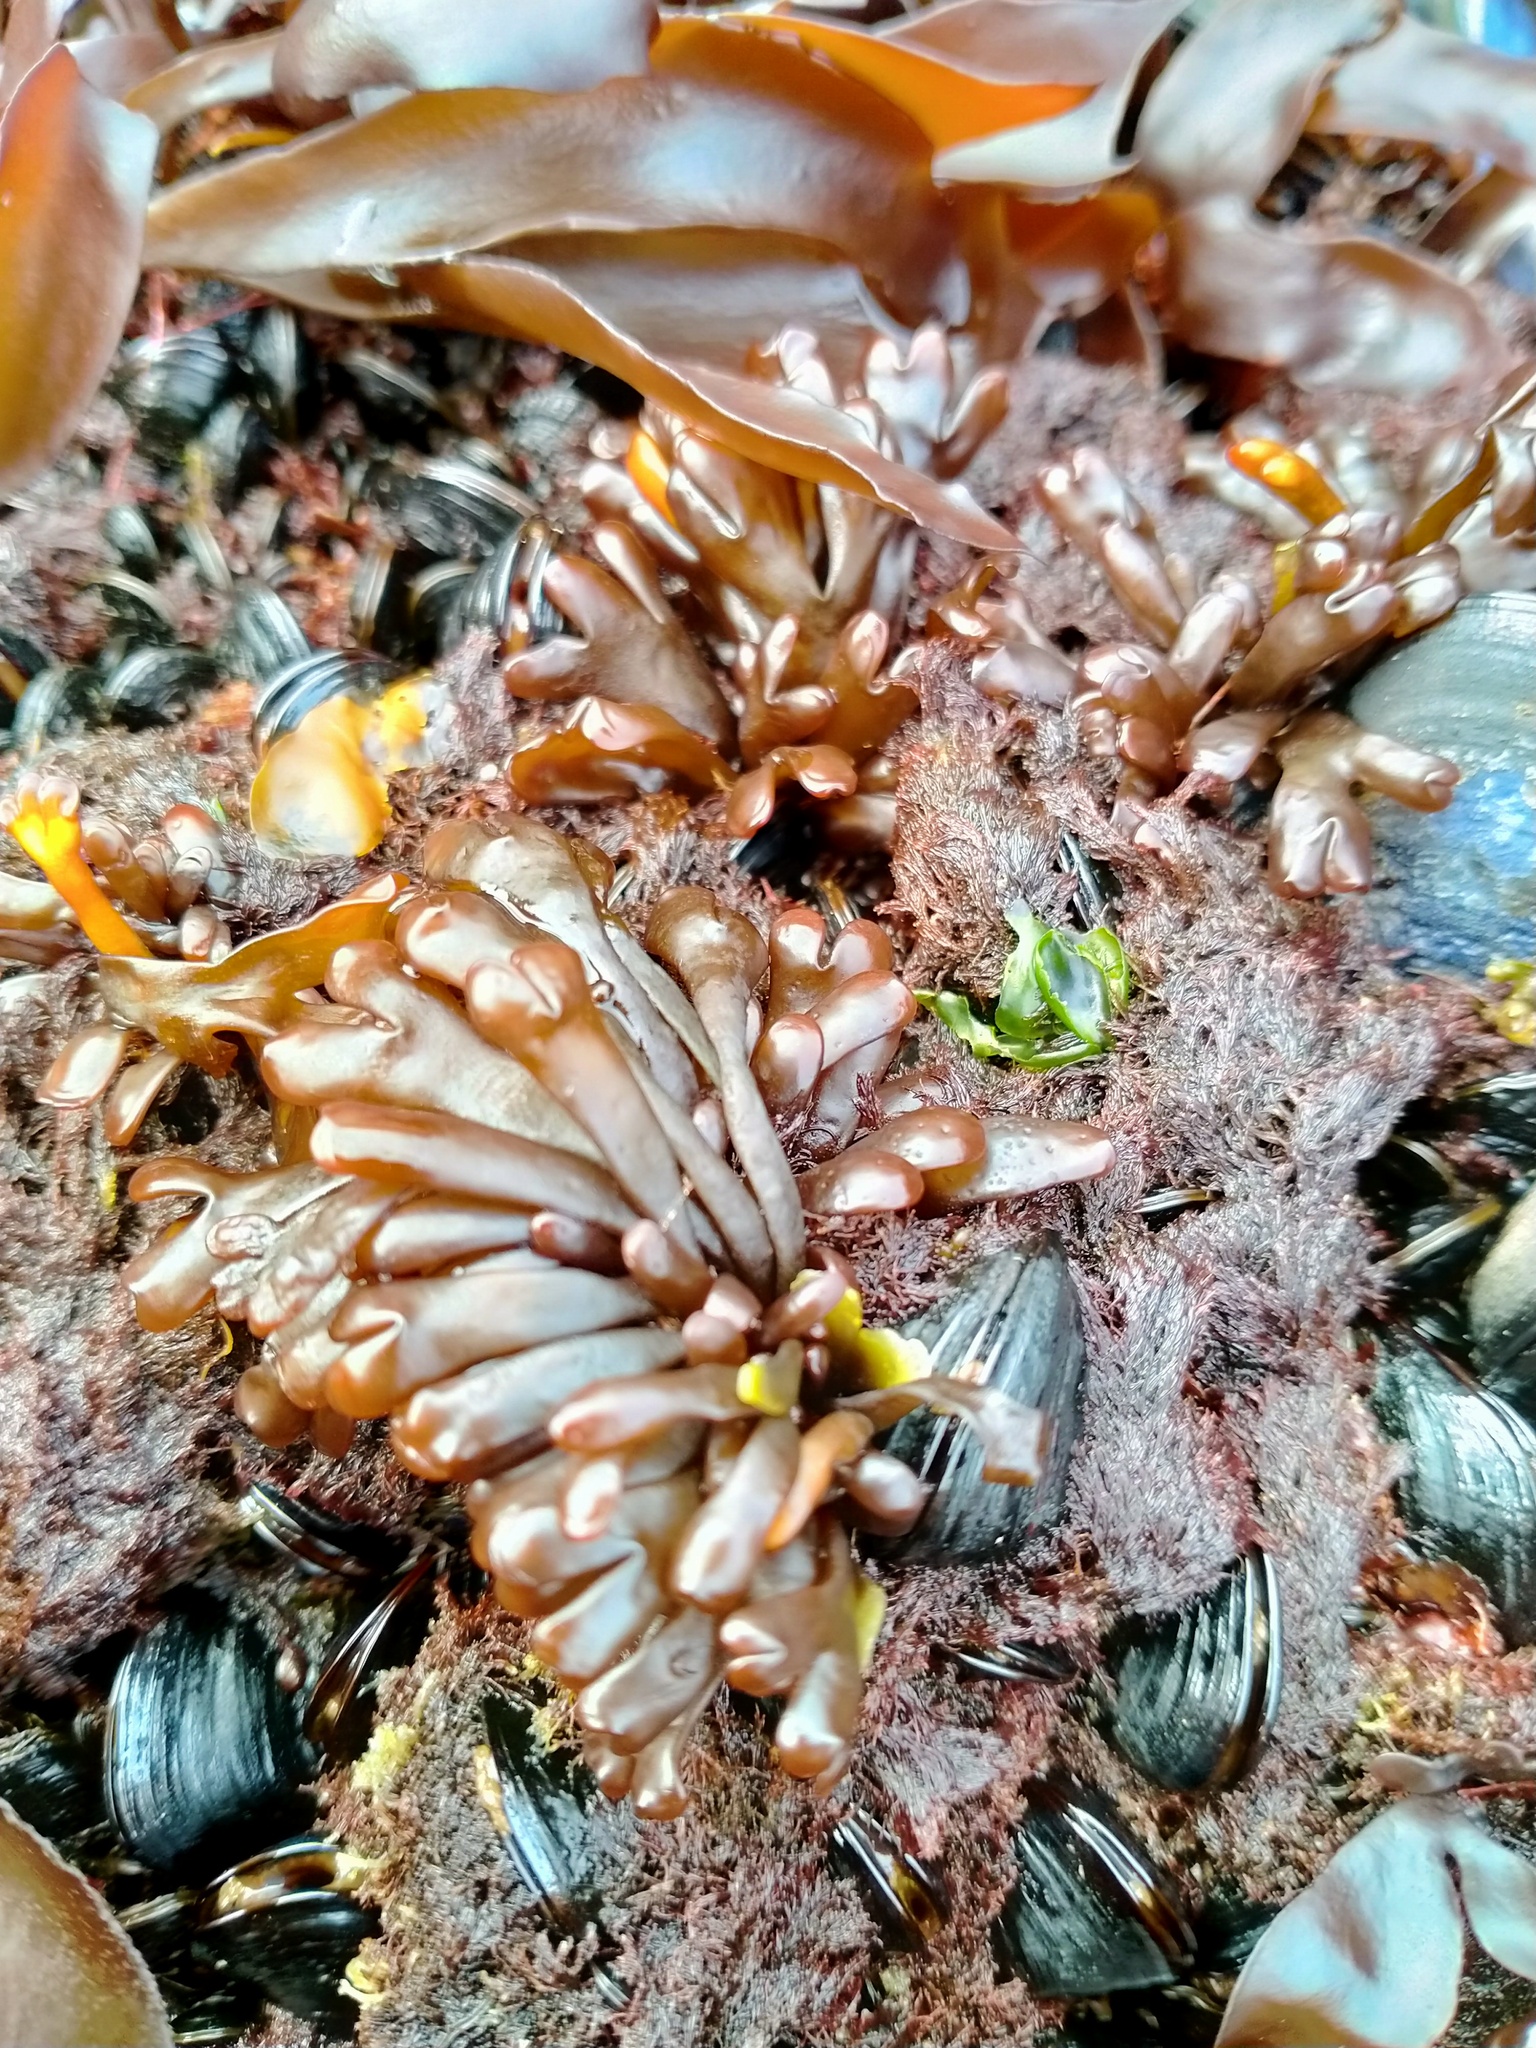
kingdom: Plantae
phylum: Rhodophyta
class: Florideophyceae
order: Gigartinales
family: Gigartinaceae
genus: Iridaea
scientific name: Iridaea tuberculosa
